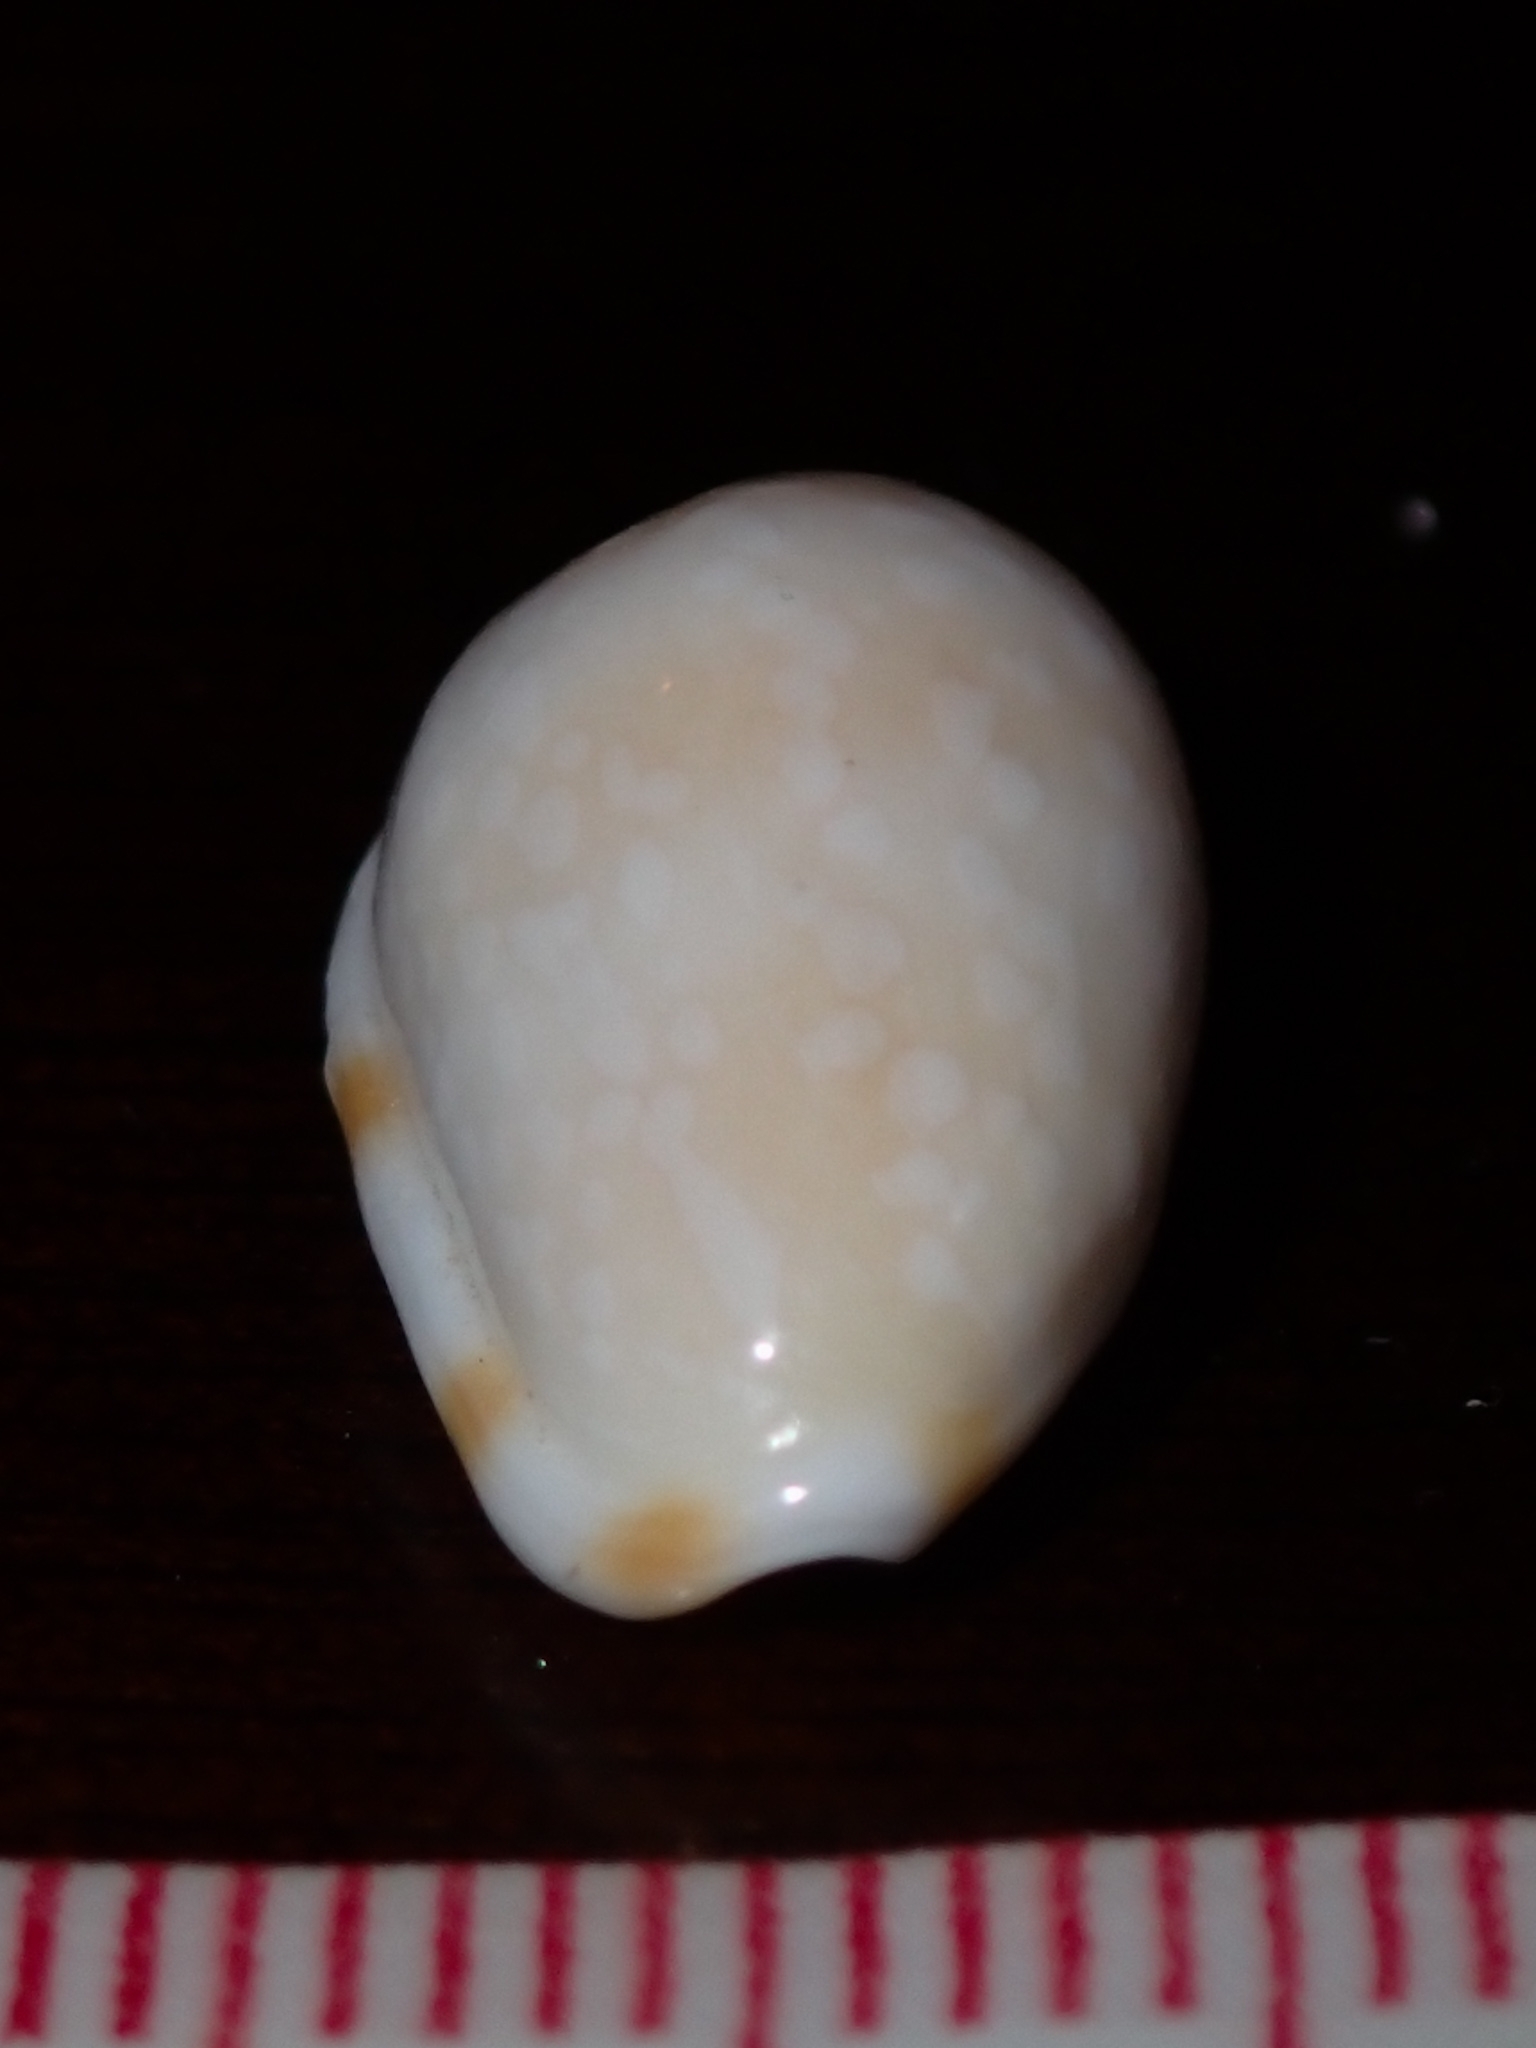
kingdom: Animalia
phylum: Mollusca
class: Gastropoda
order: Neogastropoda
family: Marginellidae
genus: Prunum
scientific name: Prunum guttatum
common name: White-spot marginella
